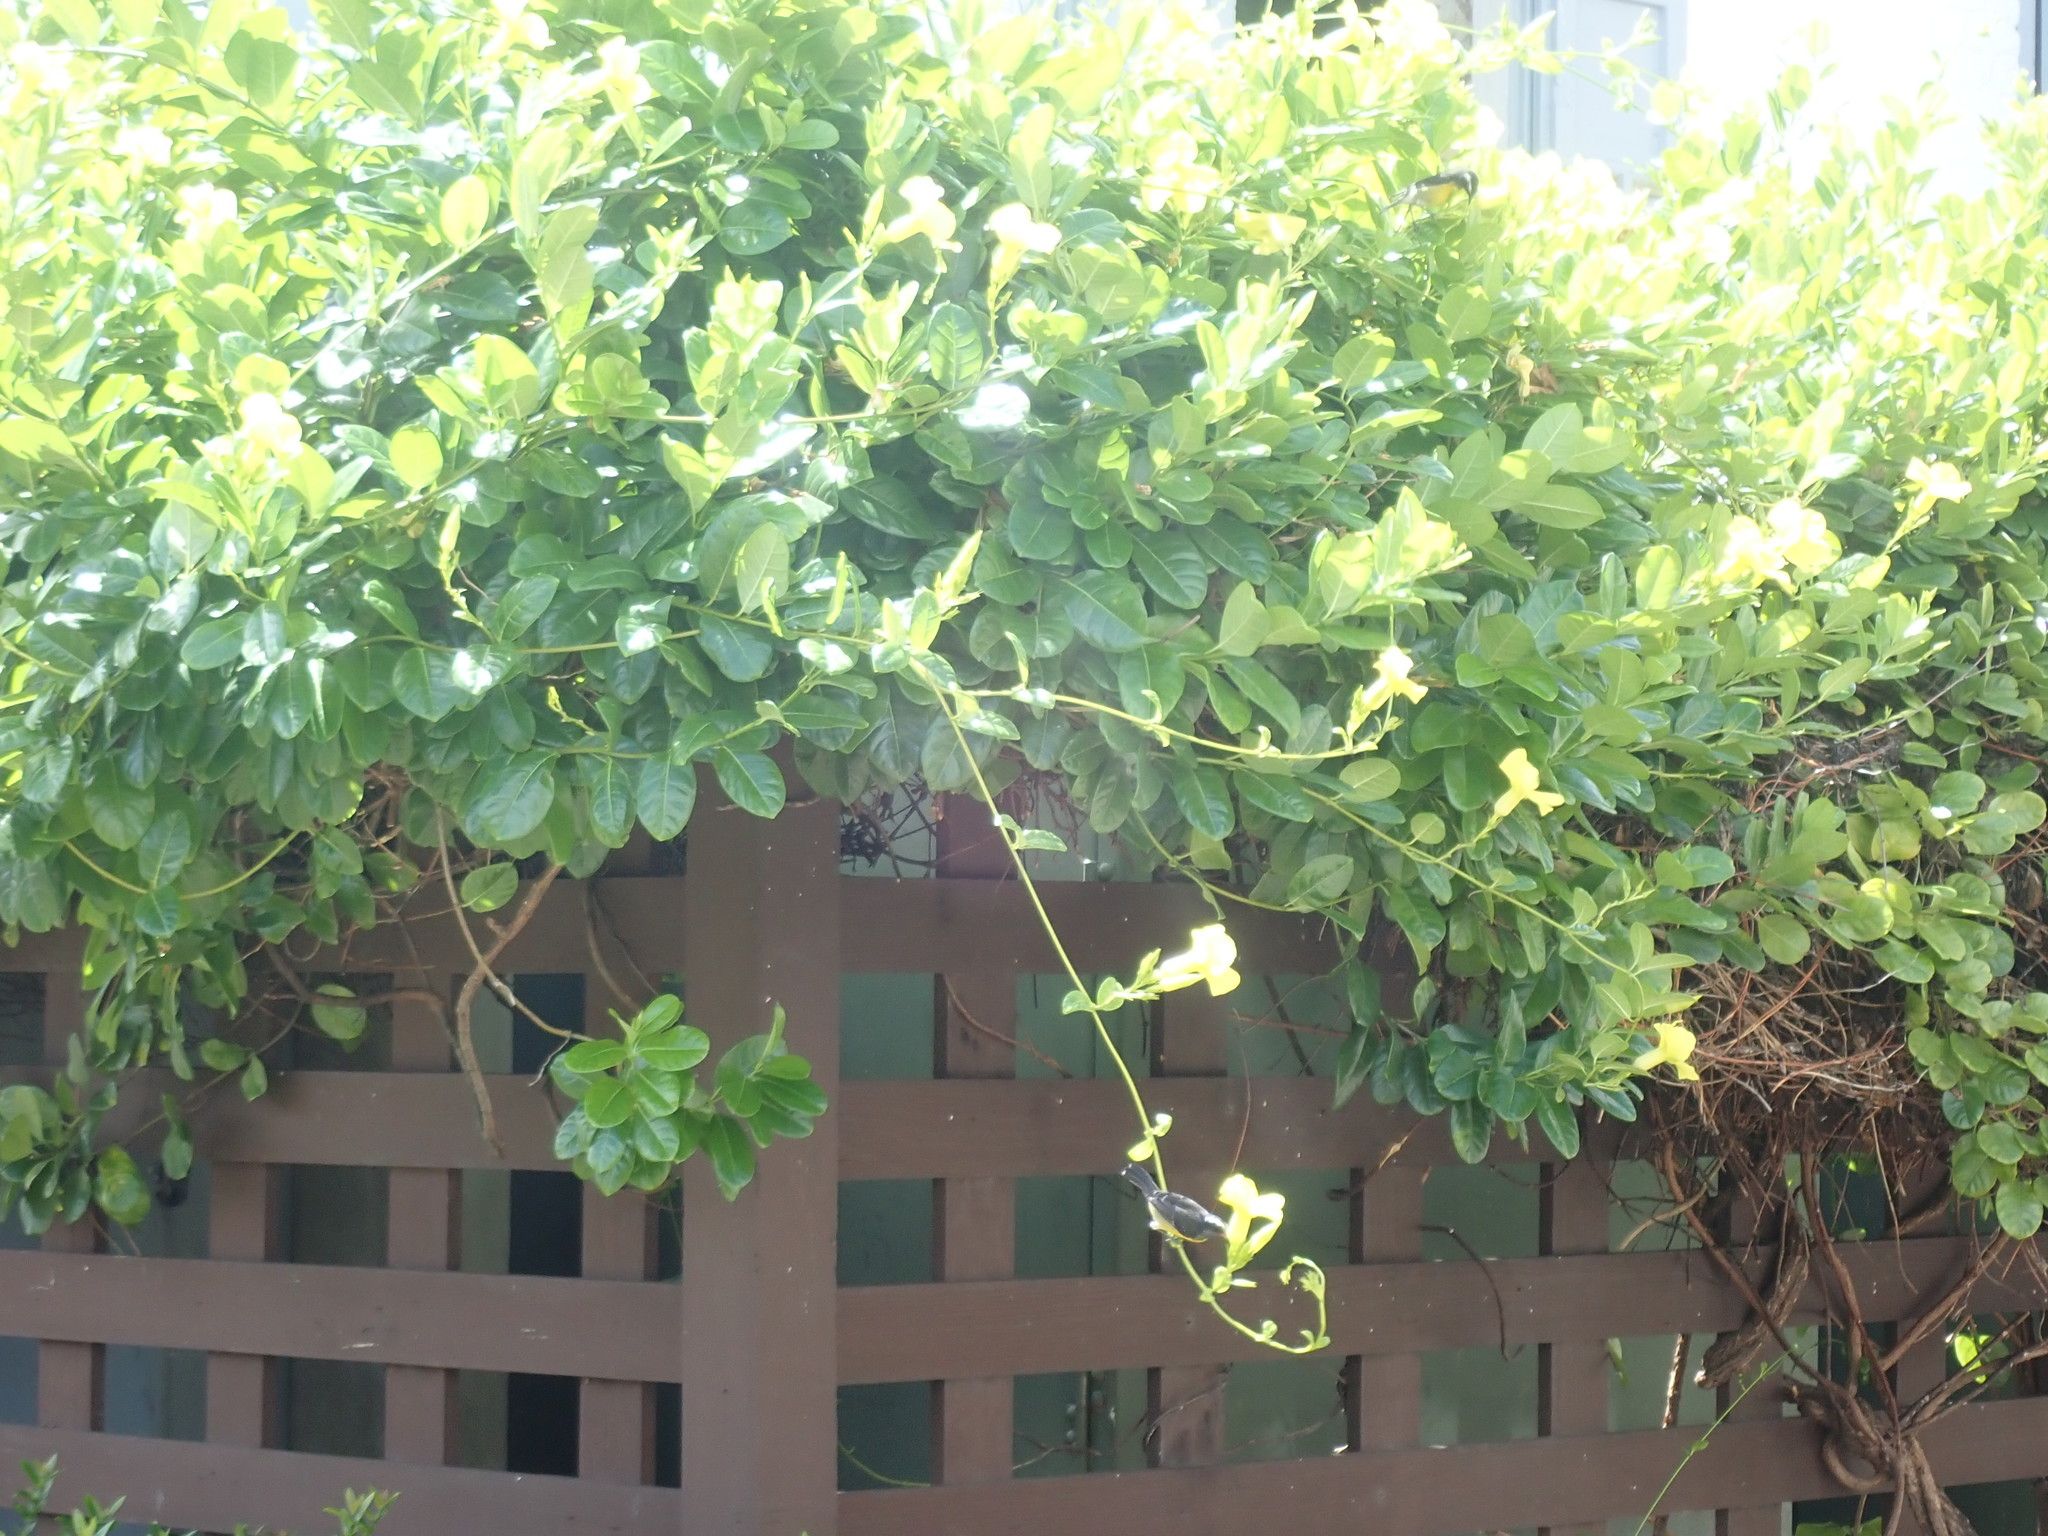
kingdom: Animalia
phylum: Chordata
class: Aves
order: Passeriformes
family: Thraupidae
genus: Coereba
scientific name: Coereba flaveola
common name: Bananaquit
